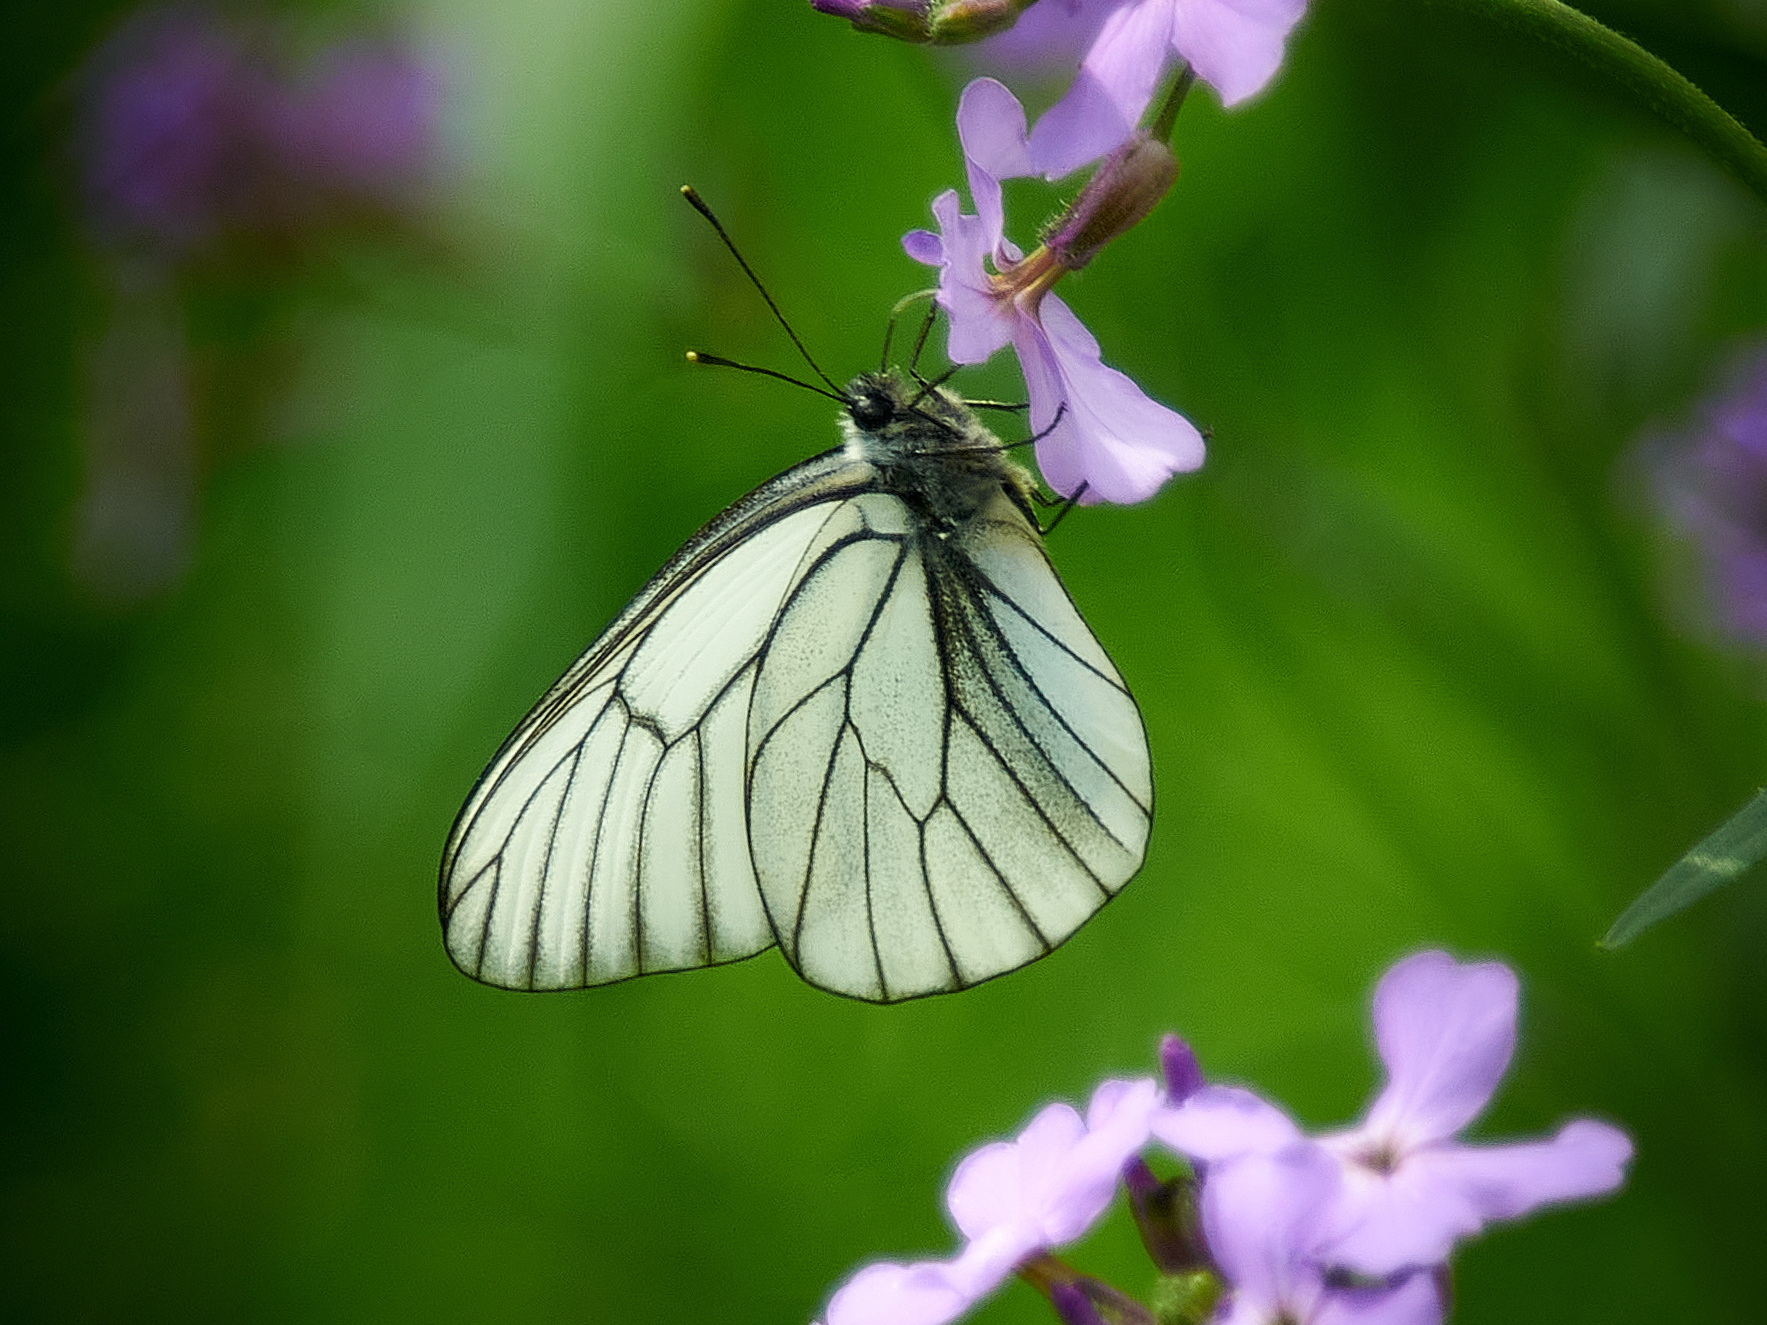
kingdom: Animalia
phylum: Arthropoda
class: Insecta
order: Lepidoptera
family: Pieridae
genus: Aporia
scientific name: Aporia crataegi
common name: Black-veined white
